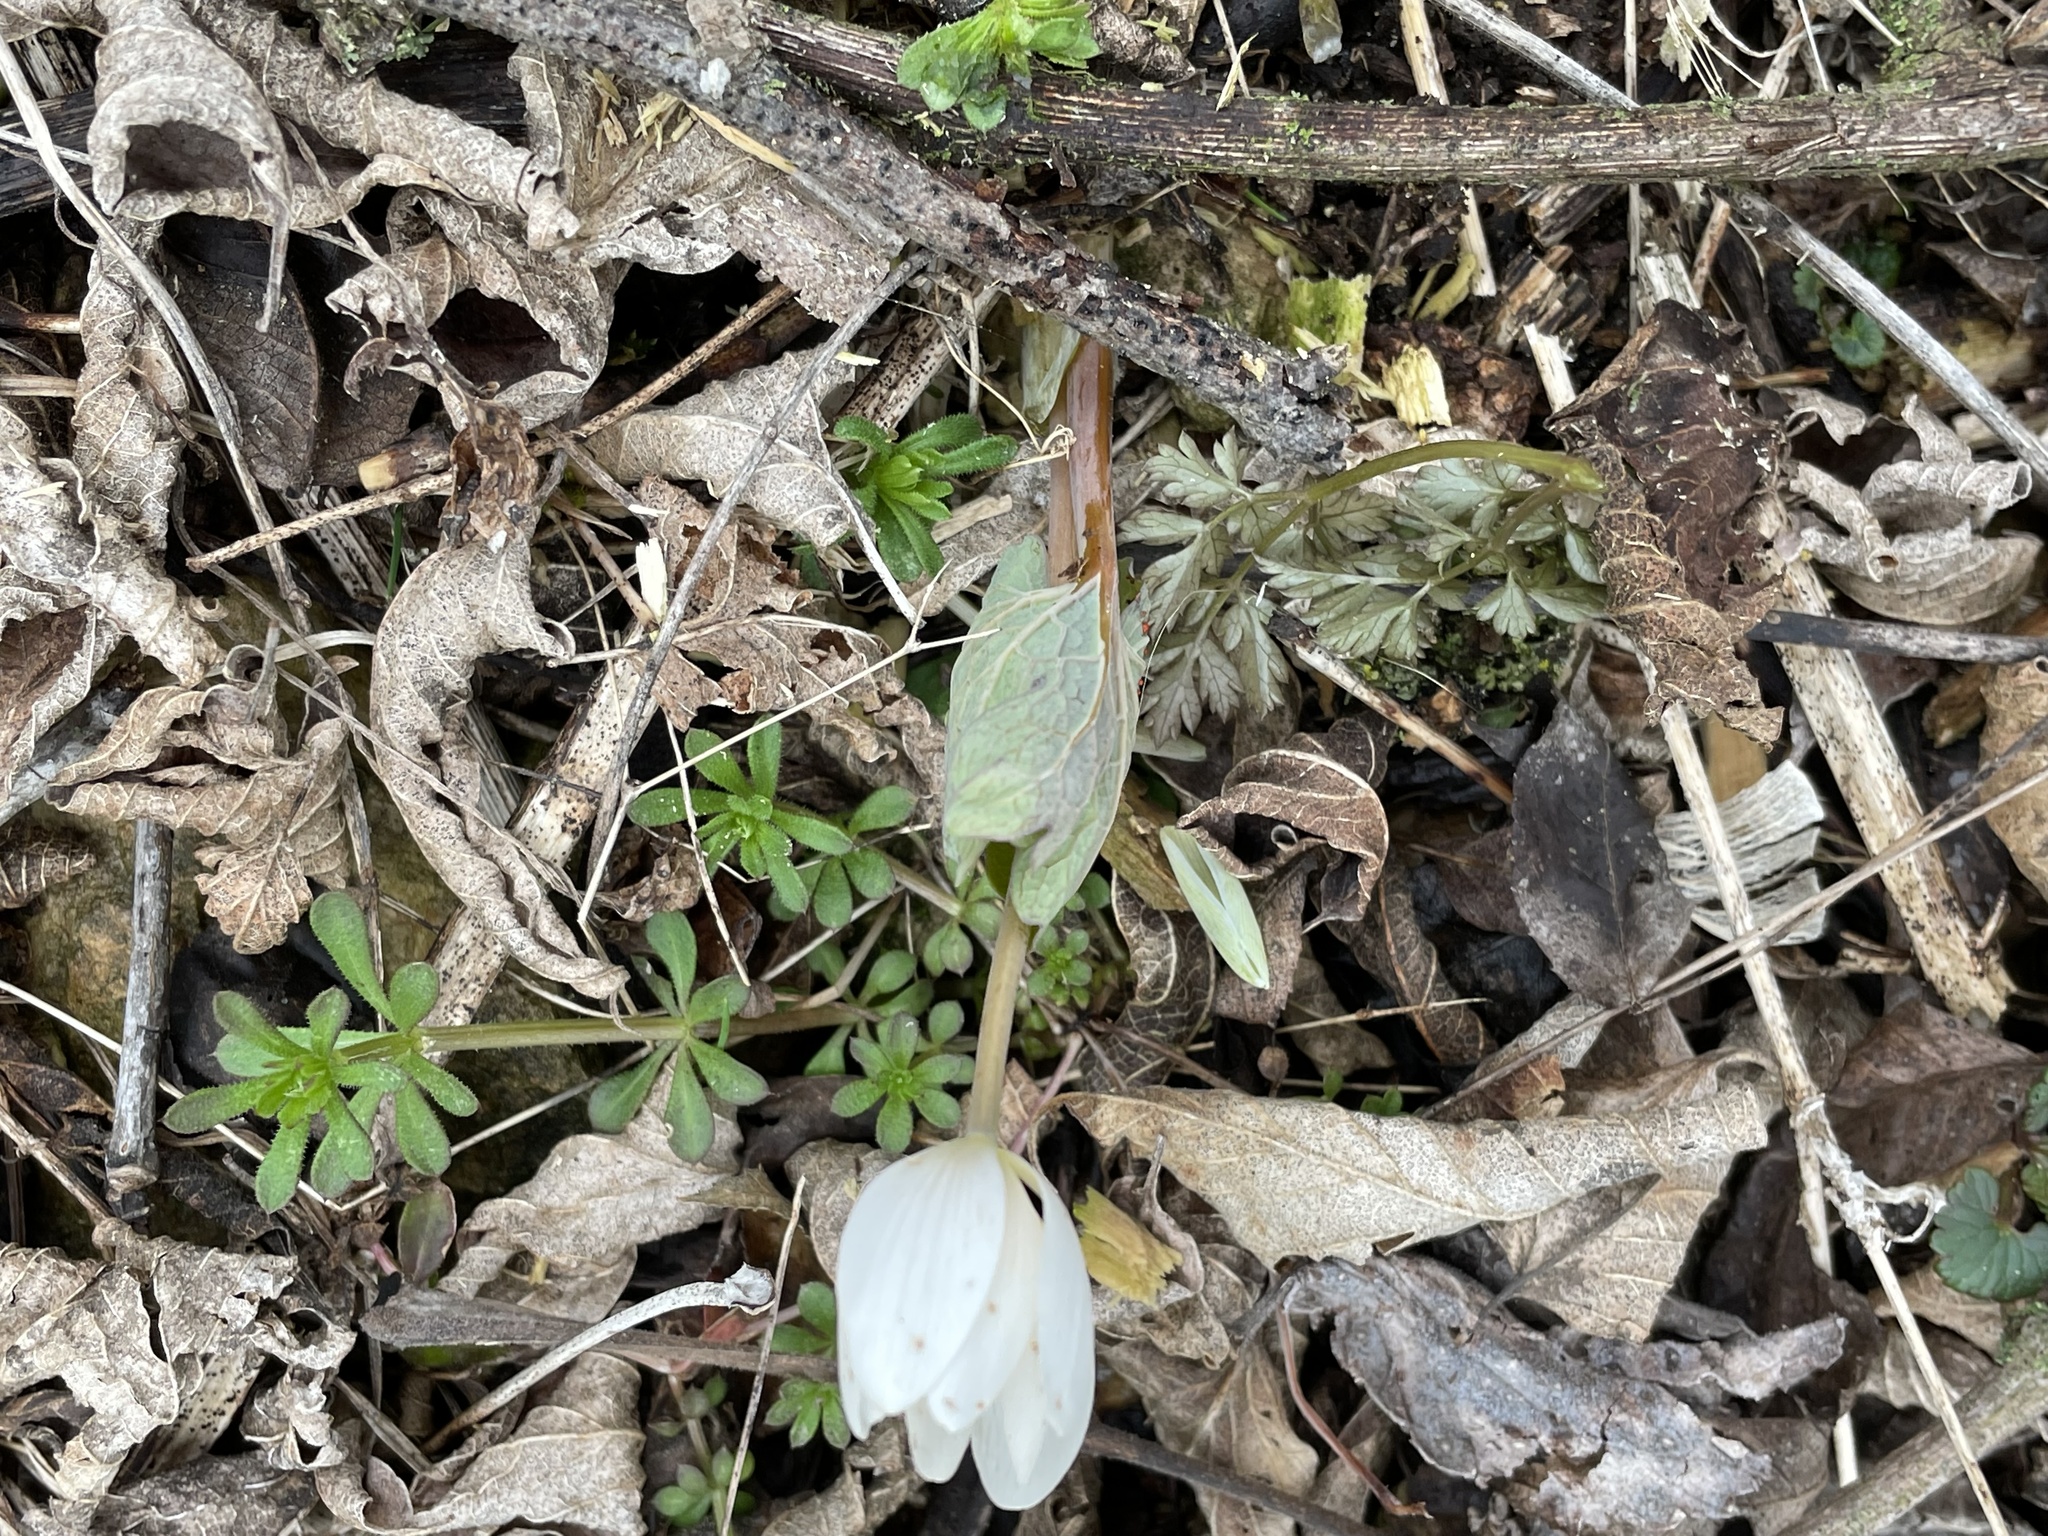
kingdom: Plantae
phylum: Tracheophyta
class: Magnoliopsida
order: Ranunculales
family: Papaveraceae
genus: Sanguinaria
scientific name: Sanguinaria canadensis
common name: Bloodroot
